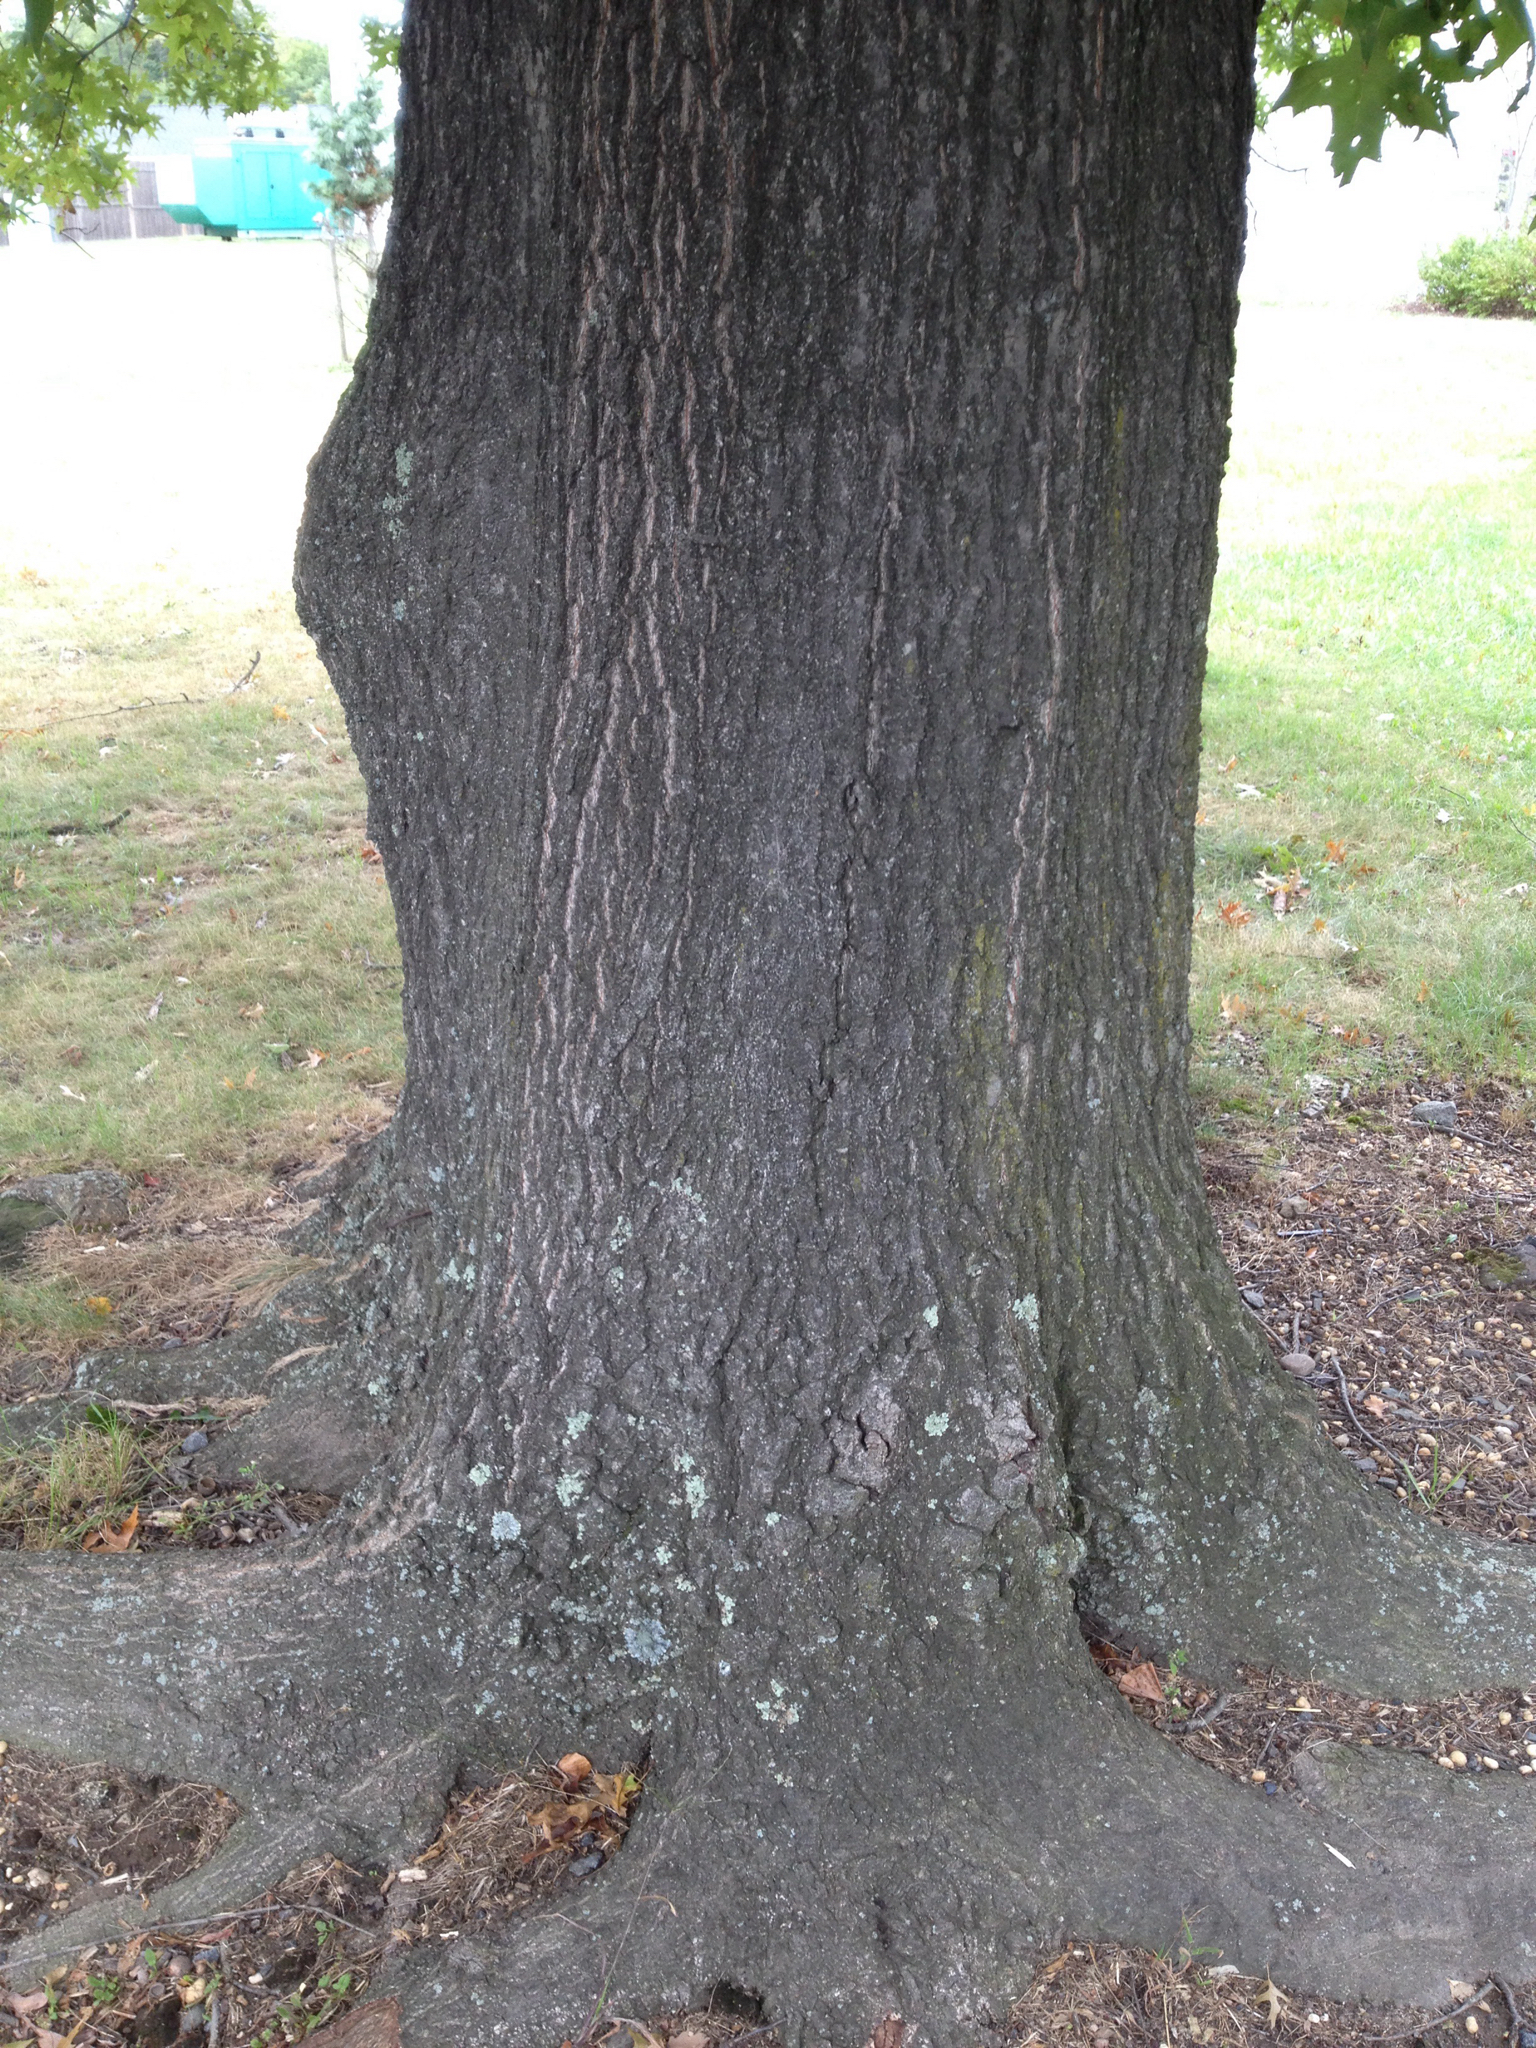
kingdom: Plantae
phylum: Tracheophyta
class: Magnoliopsida
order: Fagales
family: Fagaceae
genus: Quercus
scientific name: Quercus palustris
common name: Pin oak
